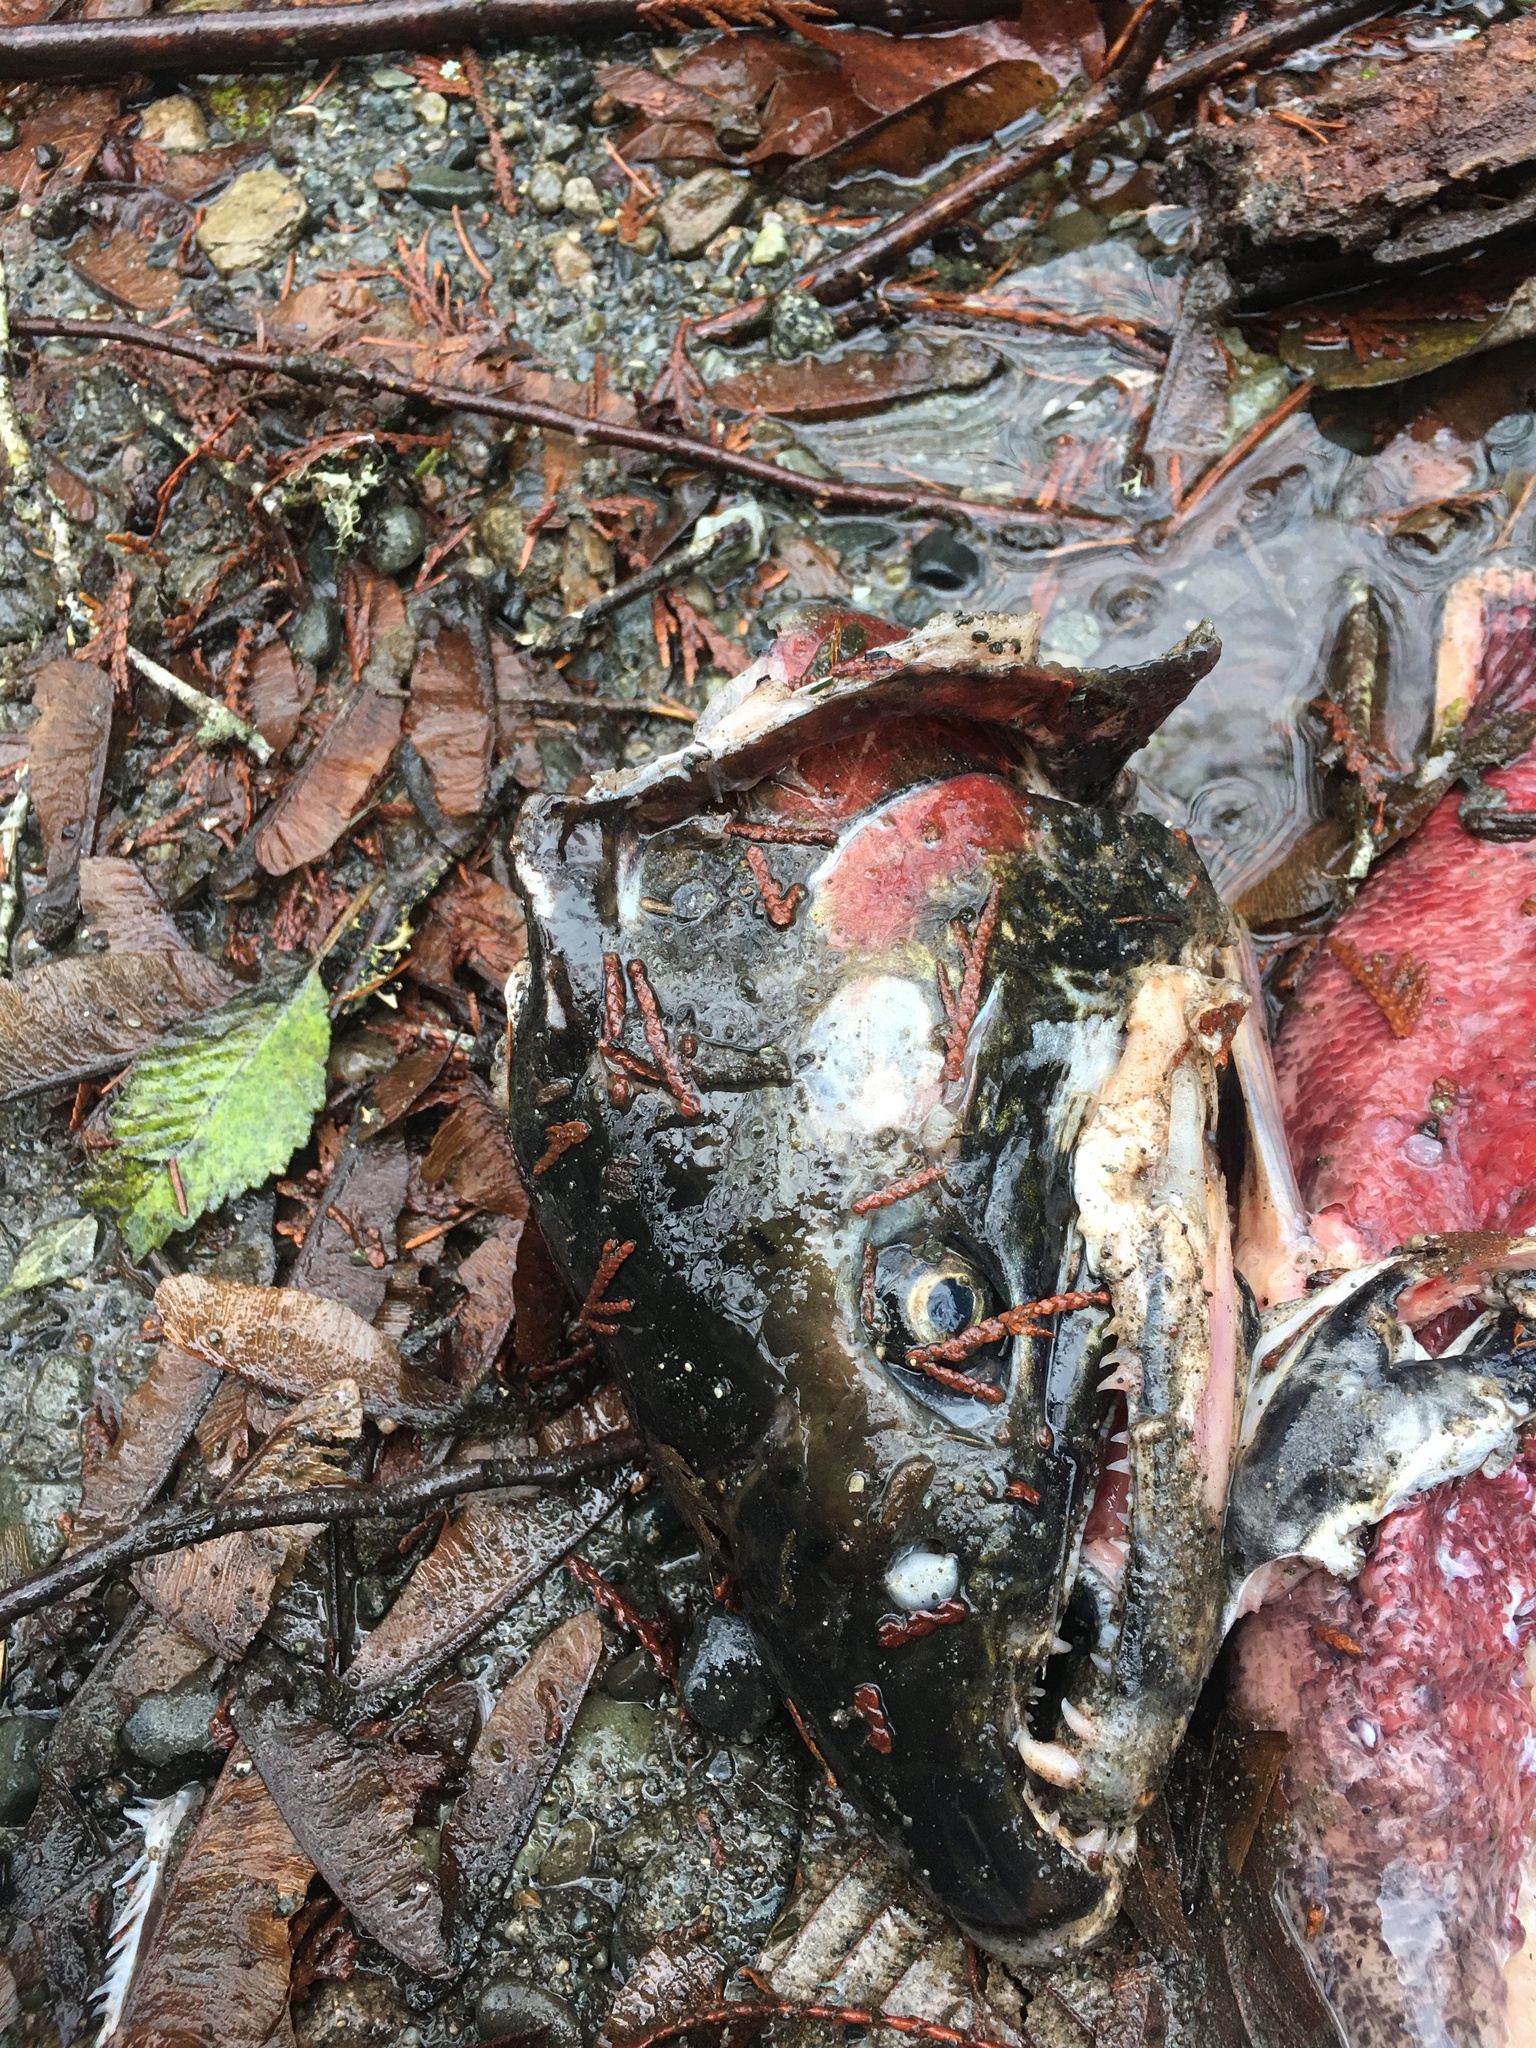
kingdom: Animalia
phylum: Chordata
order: Salmoniformes
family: Salmonidae
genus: Oncorhynchus
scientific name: Oncorhynchus kisutch
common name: Coho salmon
